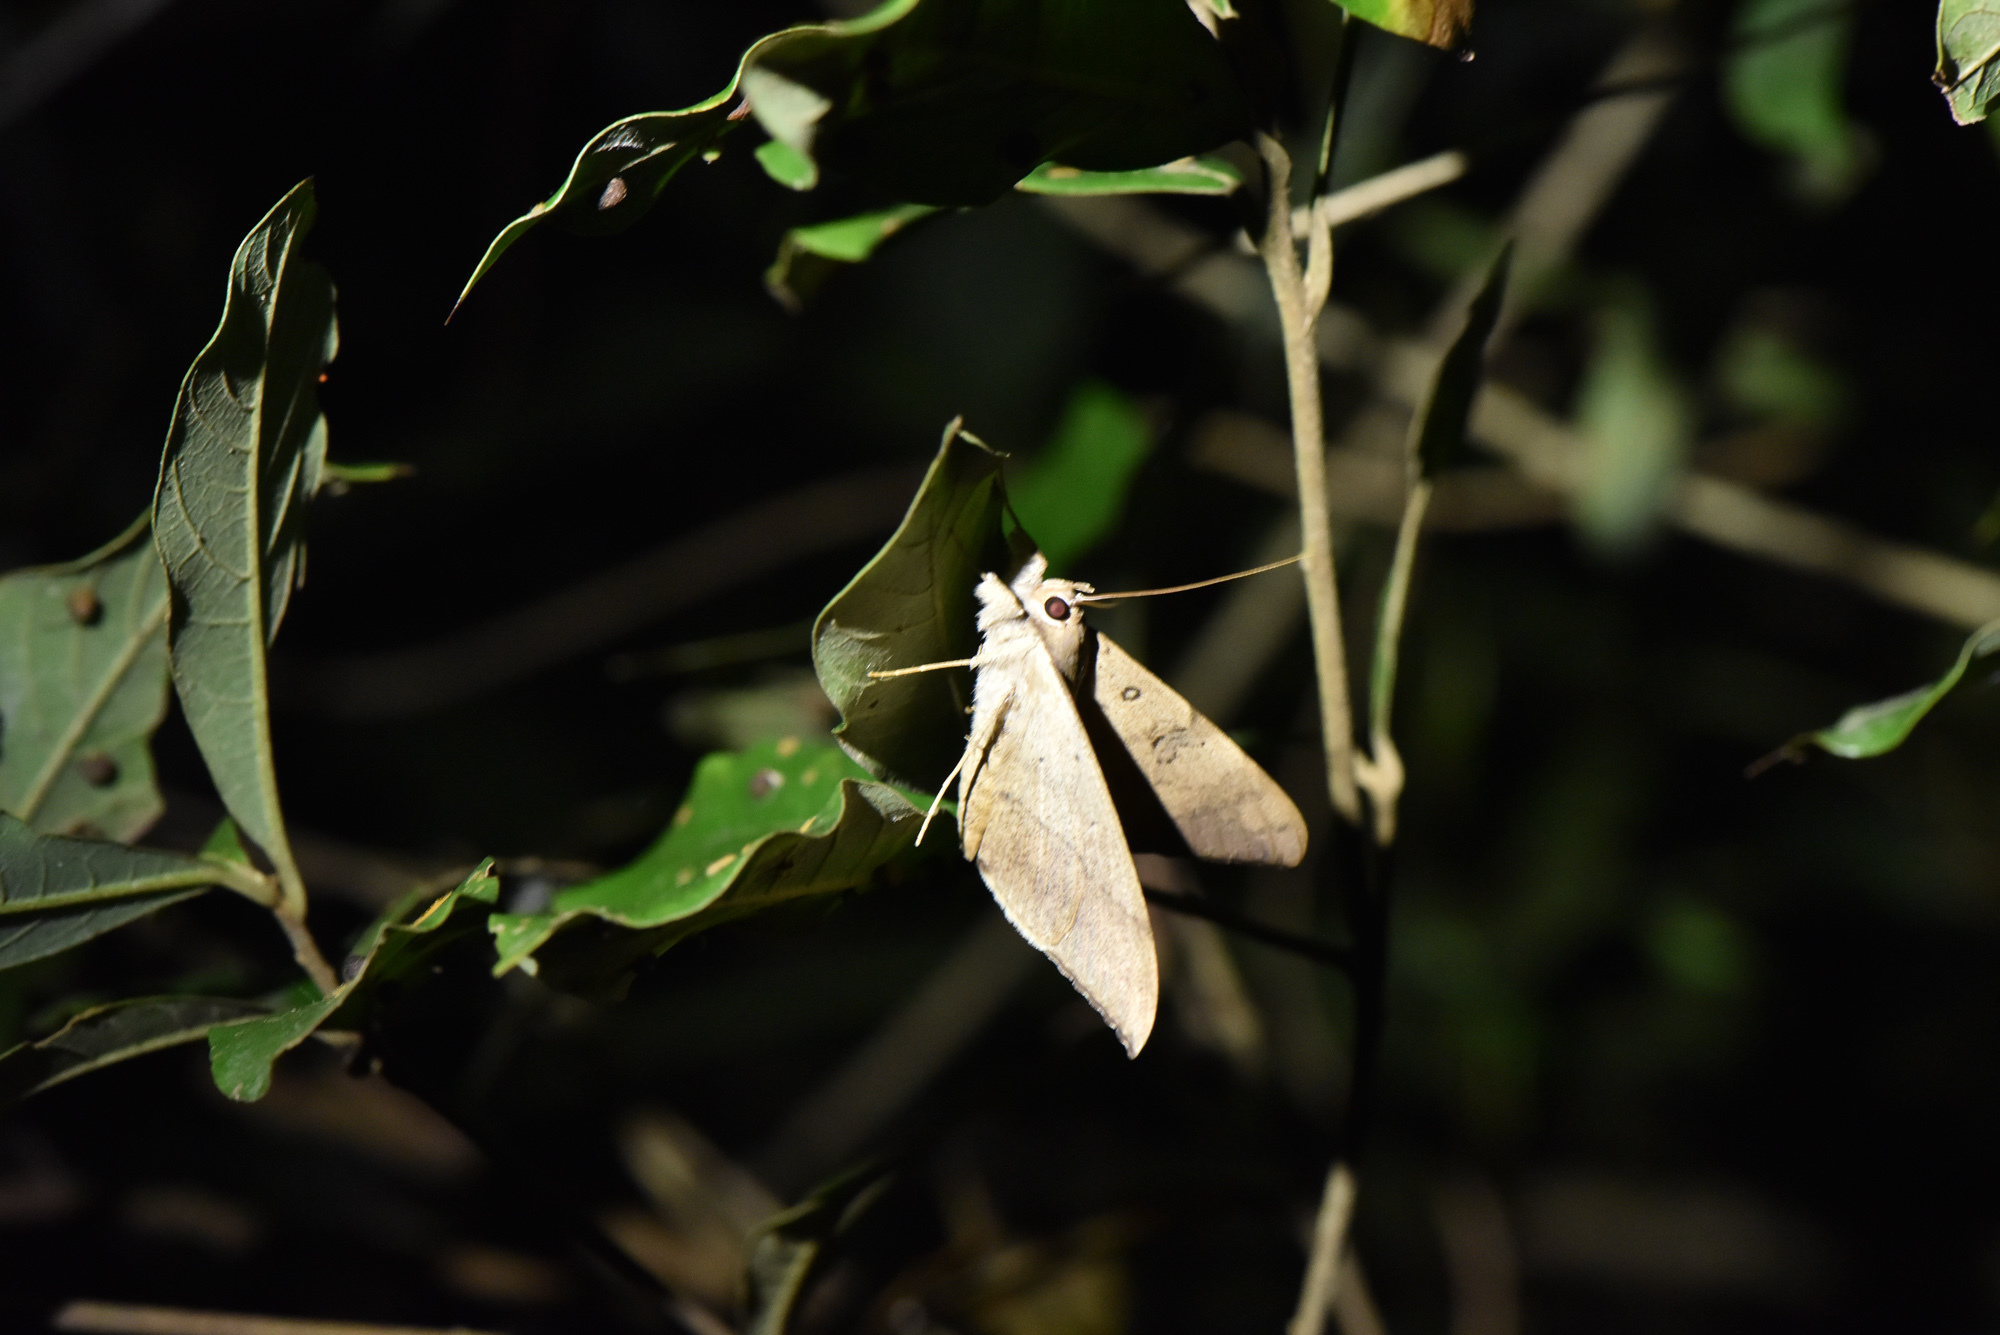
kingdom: Animalia
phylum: Arthropoda
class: Insecta
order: Lepidoptera
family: Erebidae
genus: Oxyodes
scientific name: Oxyodes scrobiculata
